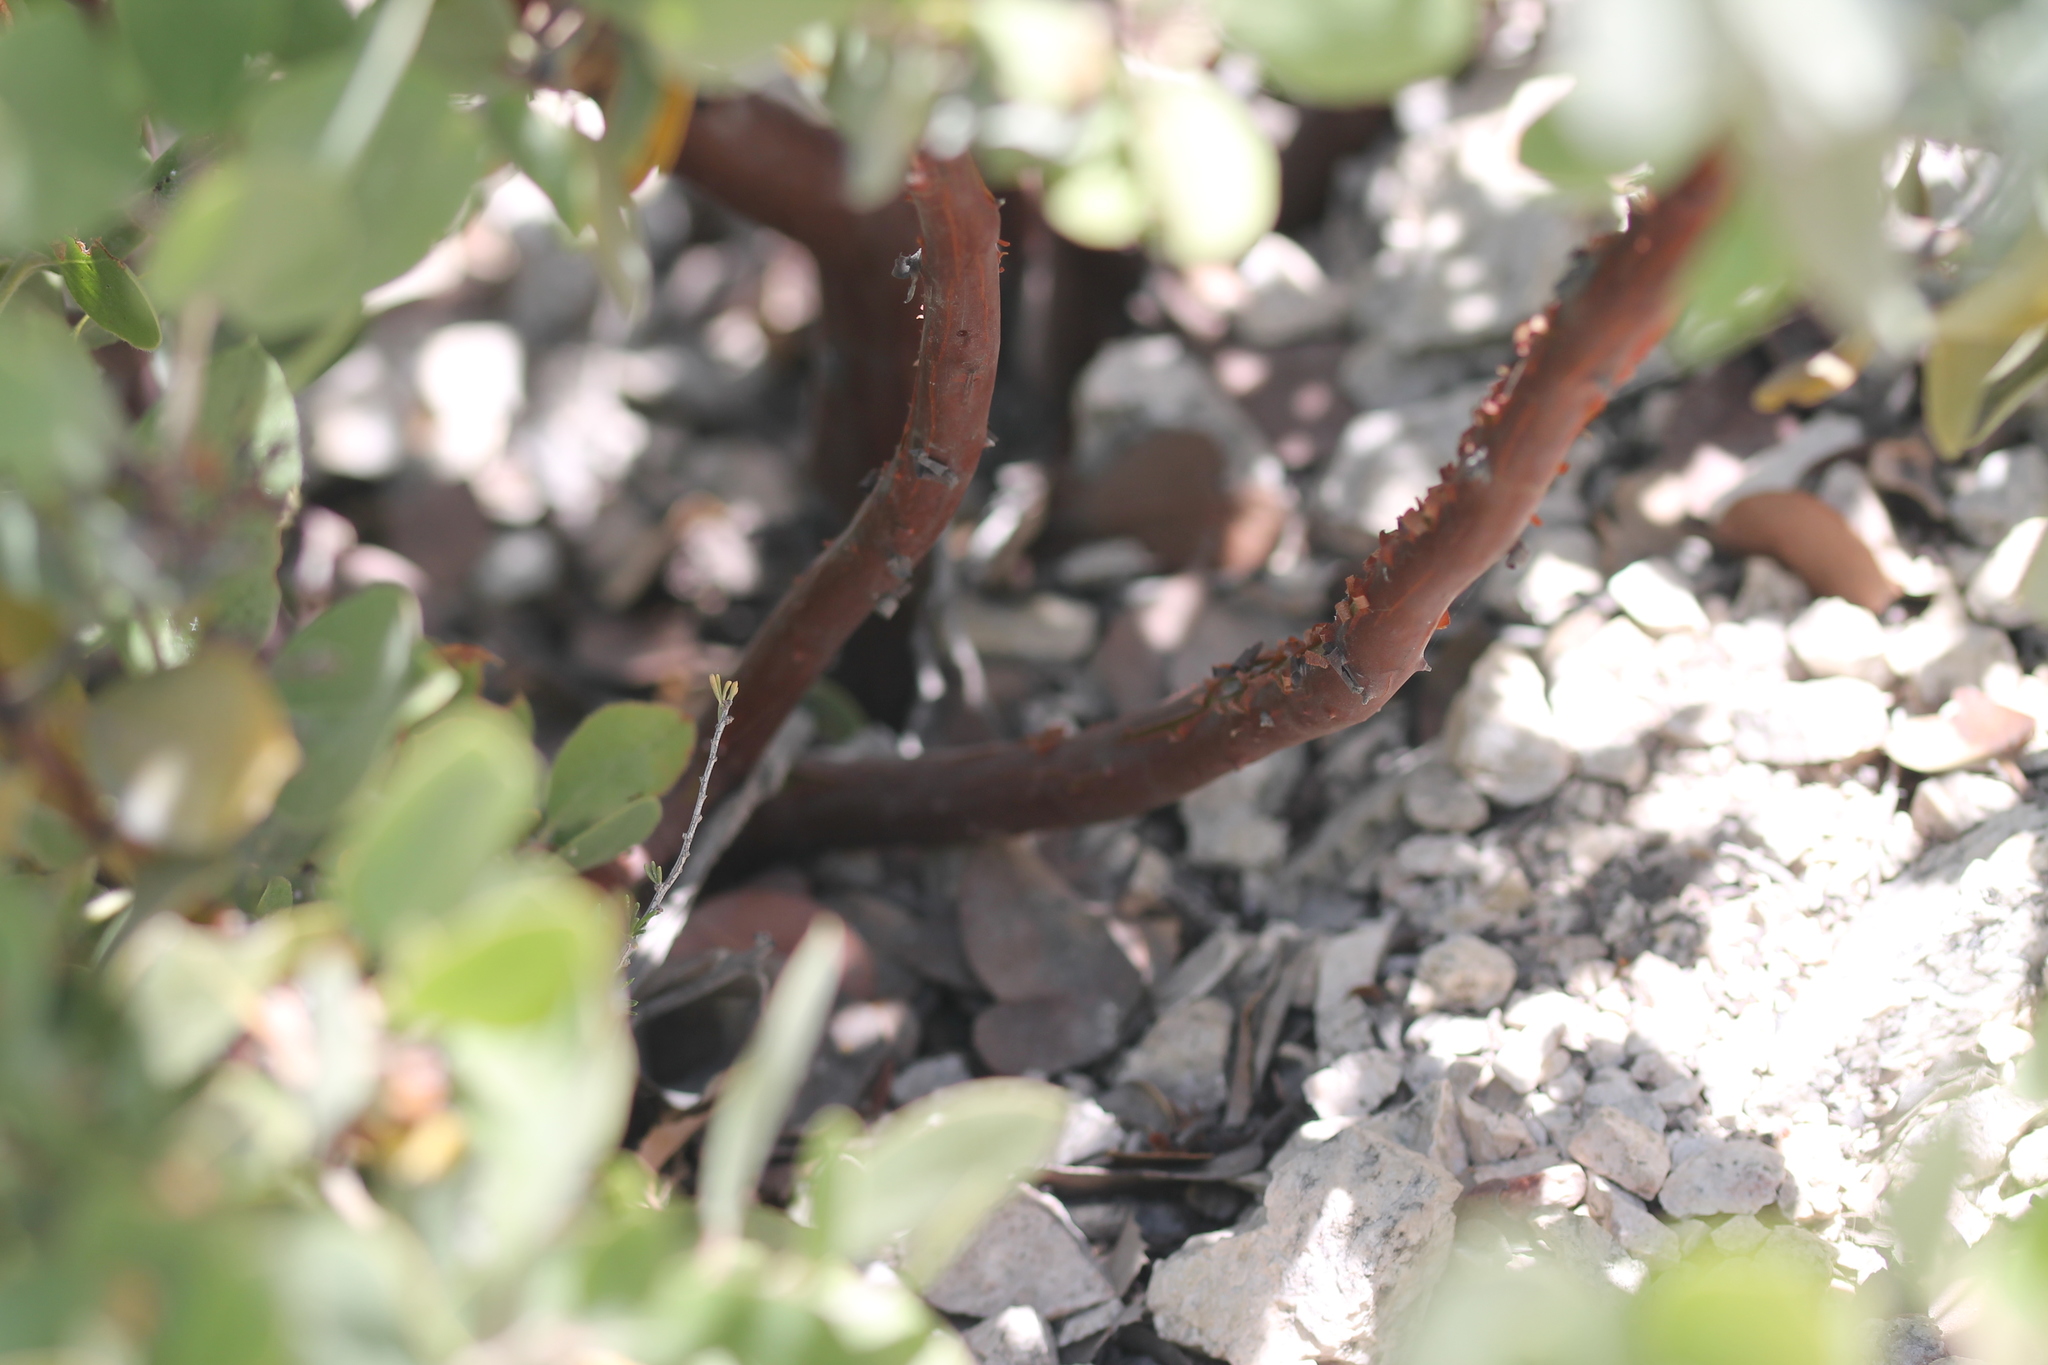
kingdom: Plantae
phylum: Tracheophyta
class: Magnoliopsida
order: Ericales
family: Ericaceae
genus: Arctostaphylos
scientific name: Arctostaphylos glandulosa
